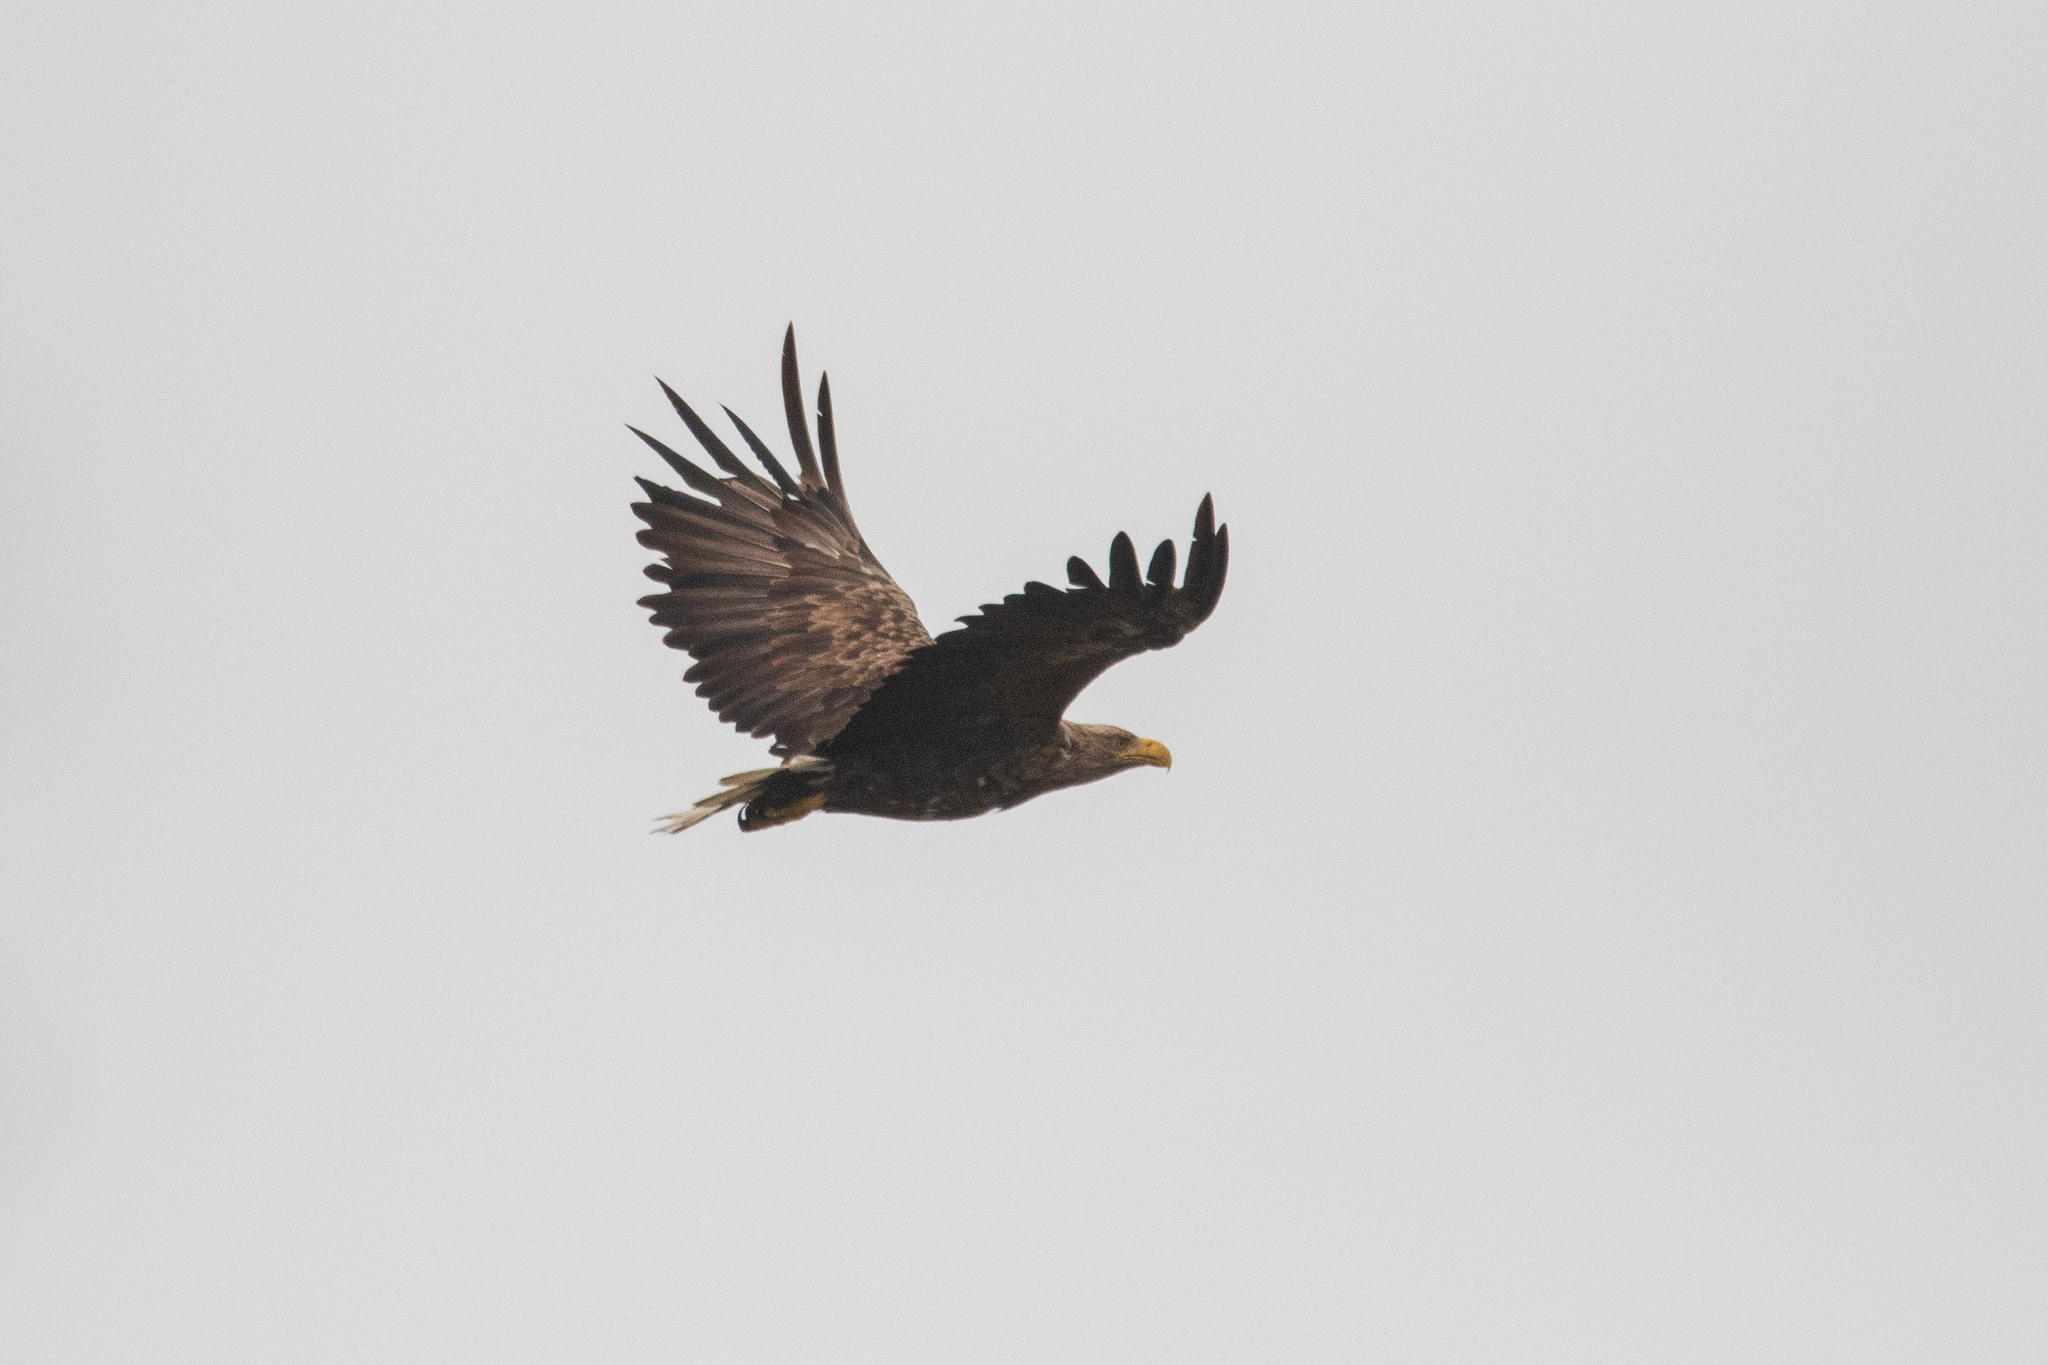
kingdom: Animalia
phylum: Chordata
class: Aves
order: Accipitriformes
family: Accipitridae
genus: Haliaeetus
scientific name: Haliaeetus albicilla
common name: White-tailed eagle
